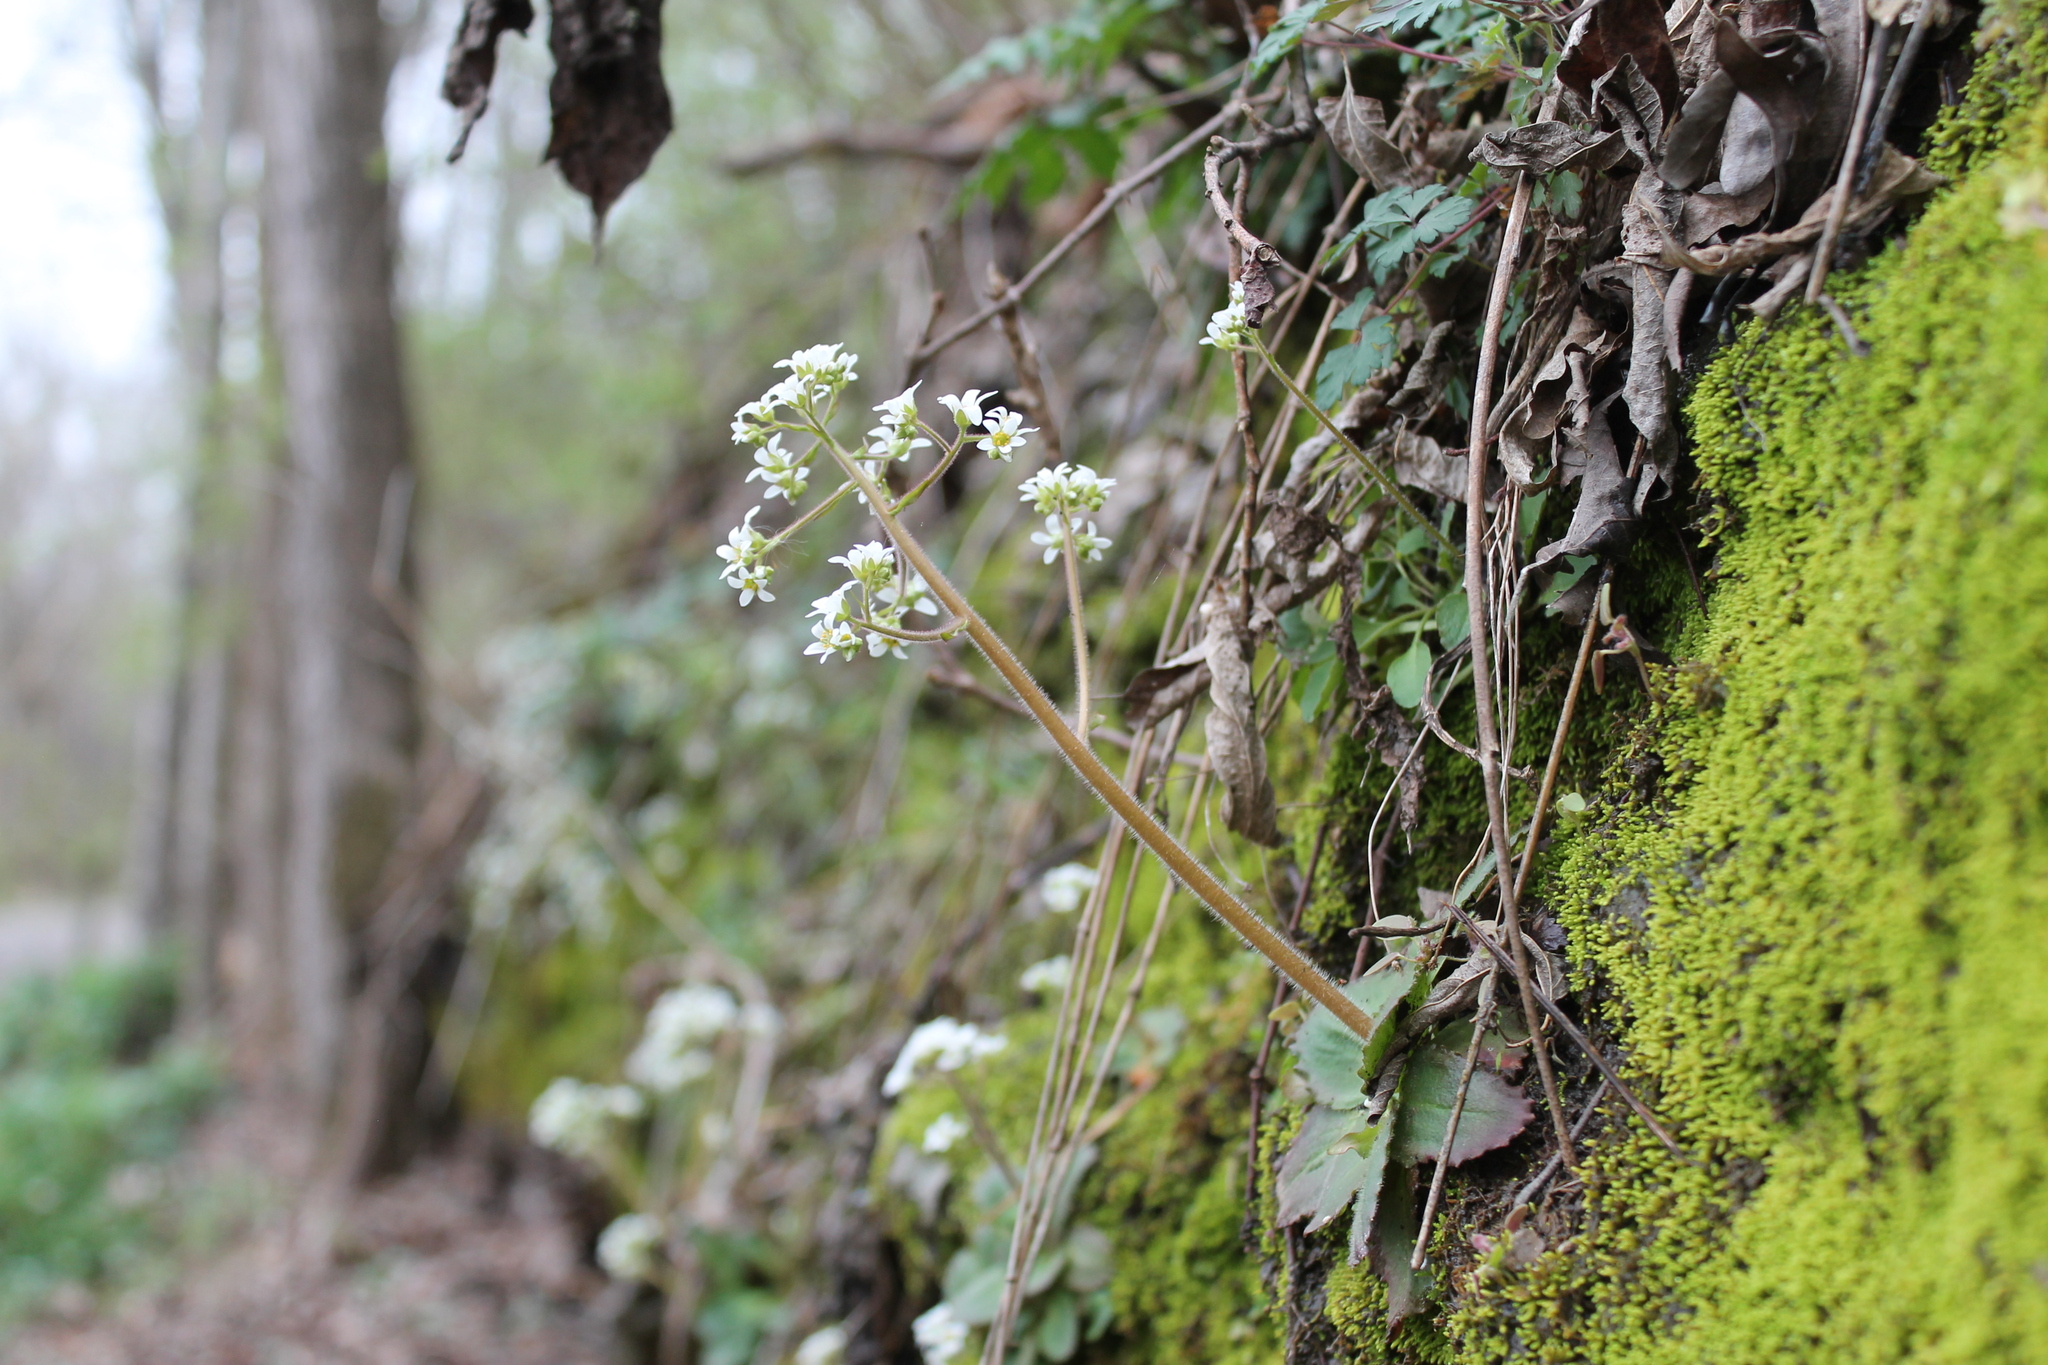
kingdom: Plantae
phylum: Tracheophyta
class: Magnoliopsida
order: Saxifragales
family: Saxifragaceae
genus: Micranthes
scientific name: Micranthes virginiensis
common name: Early saxifrage
